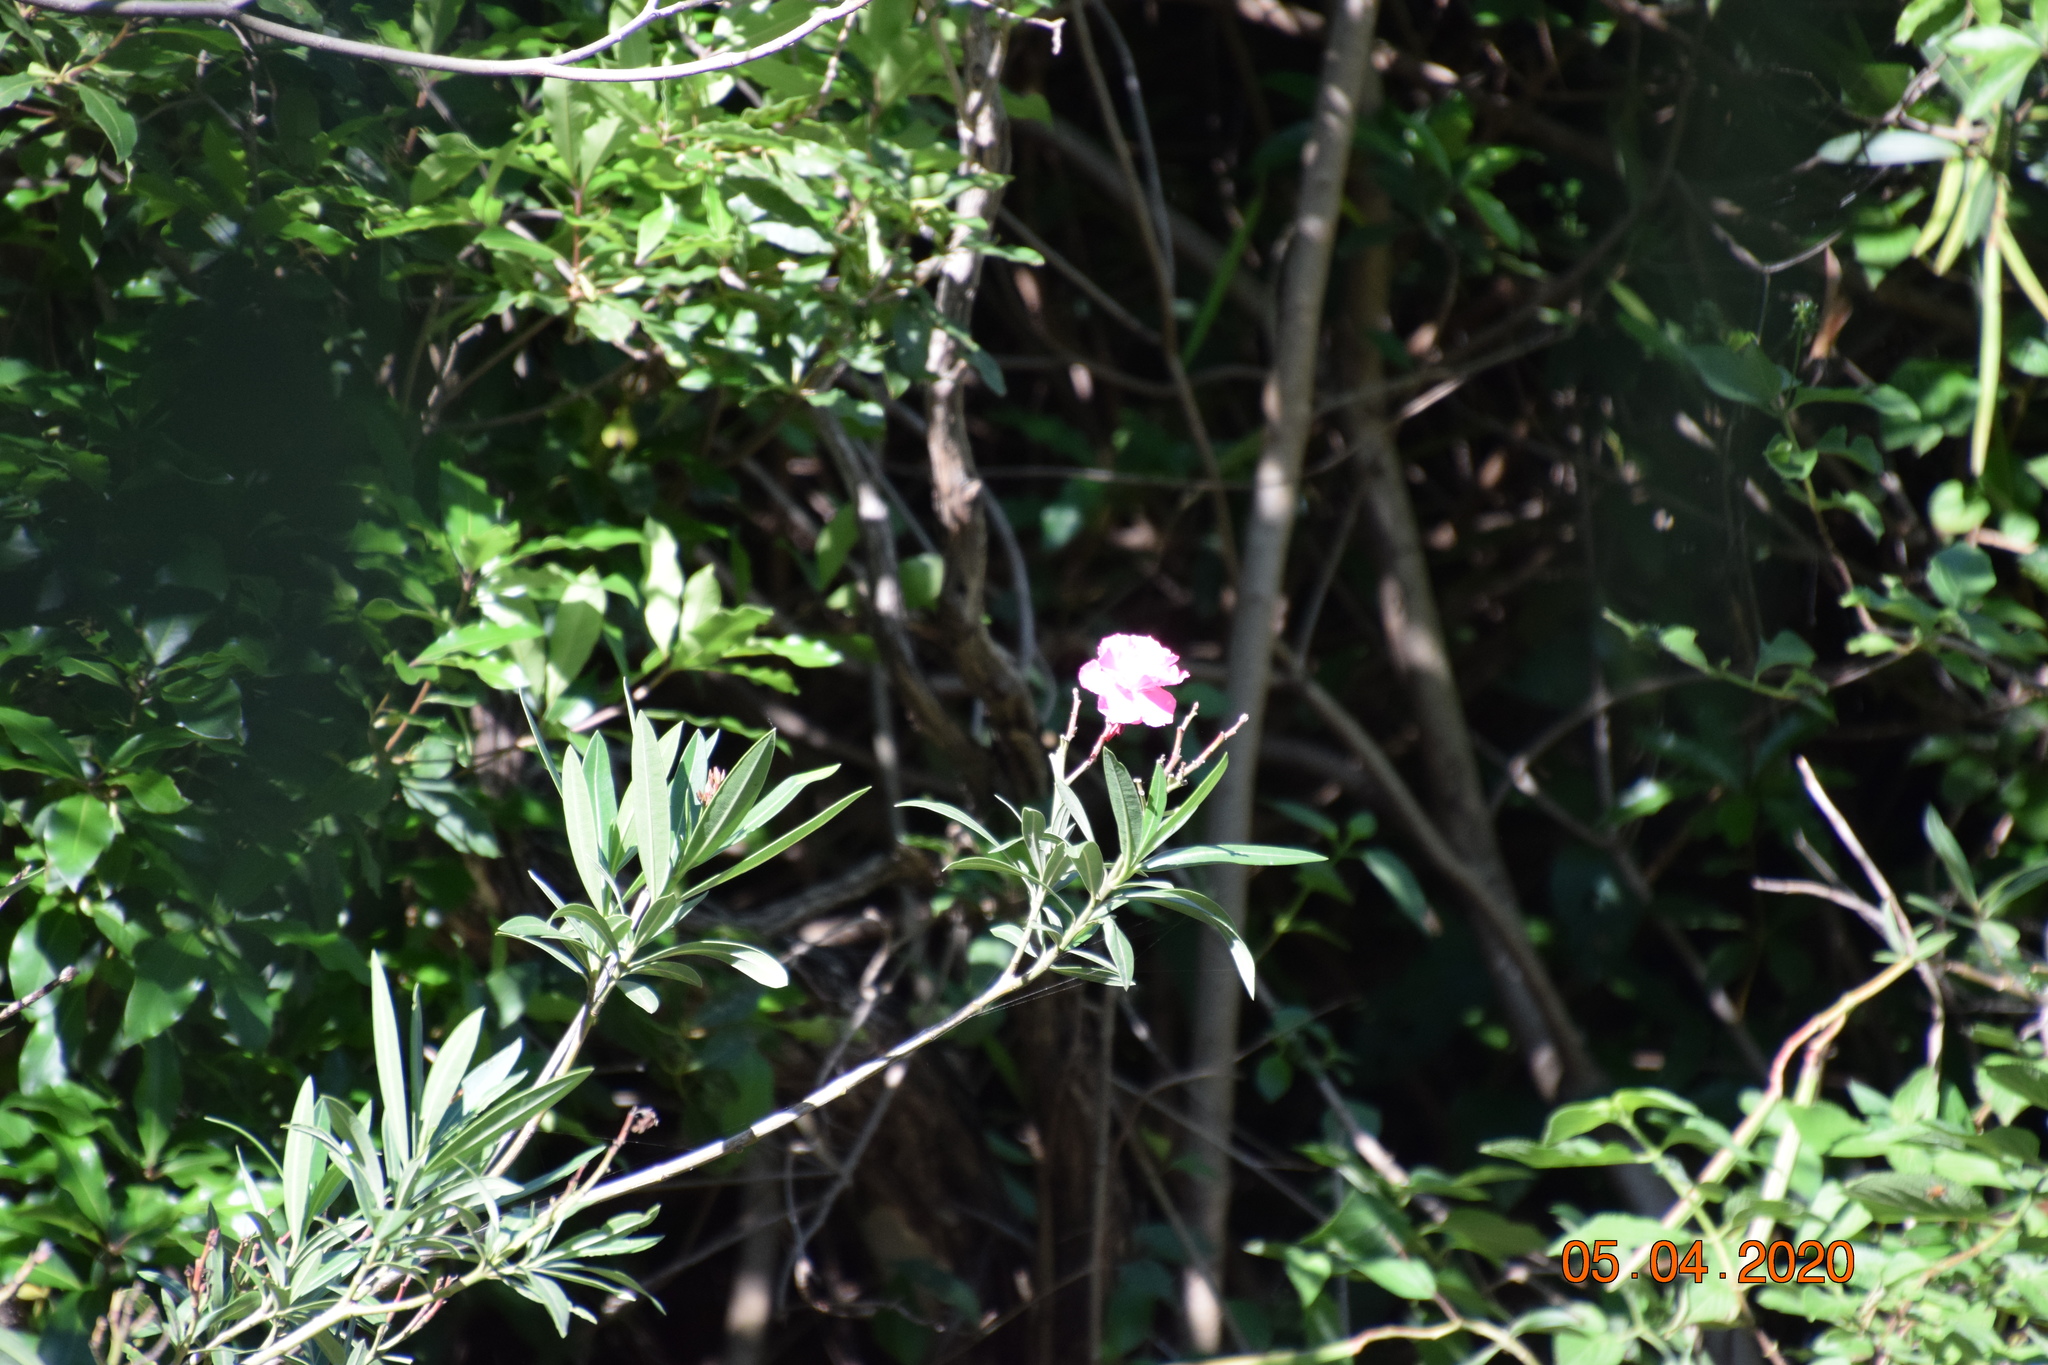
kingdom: Plantae
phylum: Tracheophyta
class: Magnoliopsida
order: Gentianales
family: Apocynaceae
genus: Nerium
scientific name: Nerium oleander
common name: Oleander
